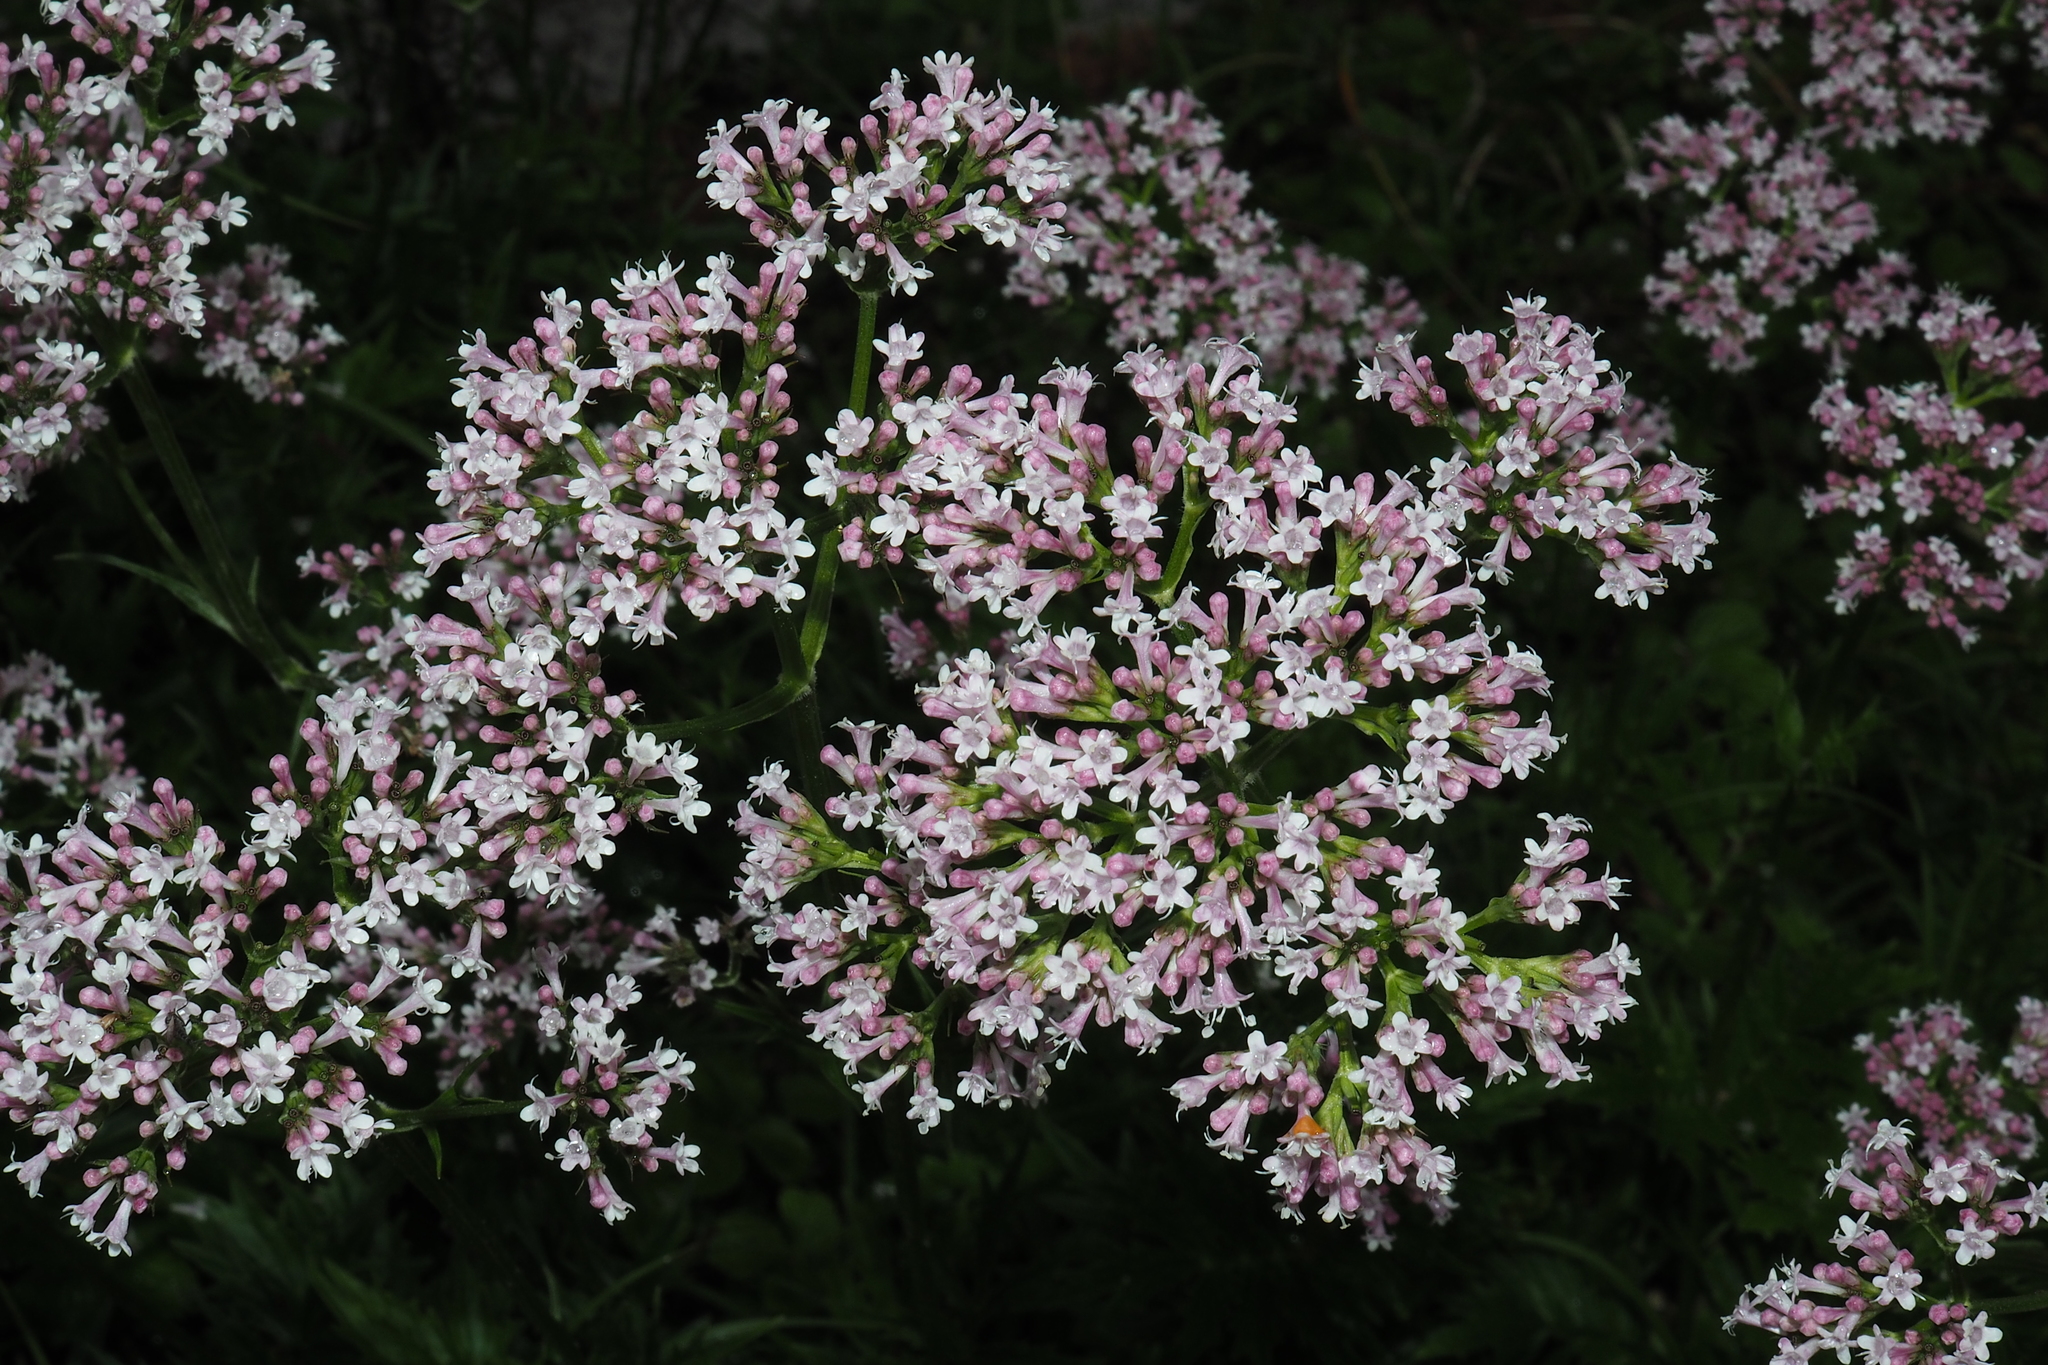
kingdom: Plantae
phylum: Tracheophyta
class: Magnoliopsida
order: Dipsacales
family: Caprifoliaceae
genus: Valeriana
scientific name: Valeriana officinalis
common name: Common valerian
